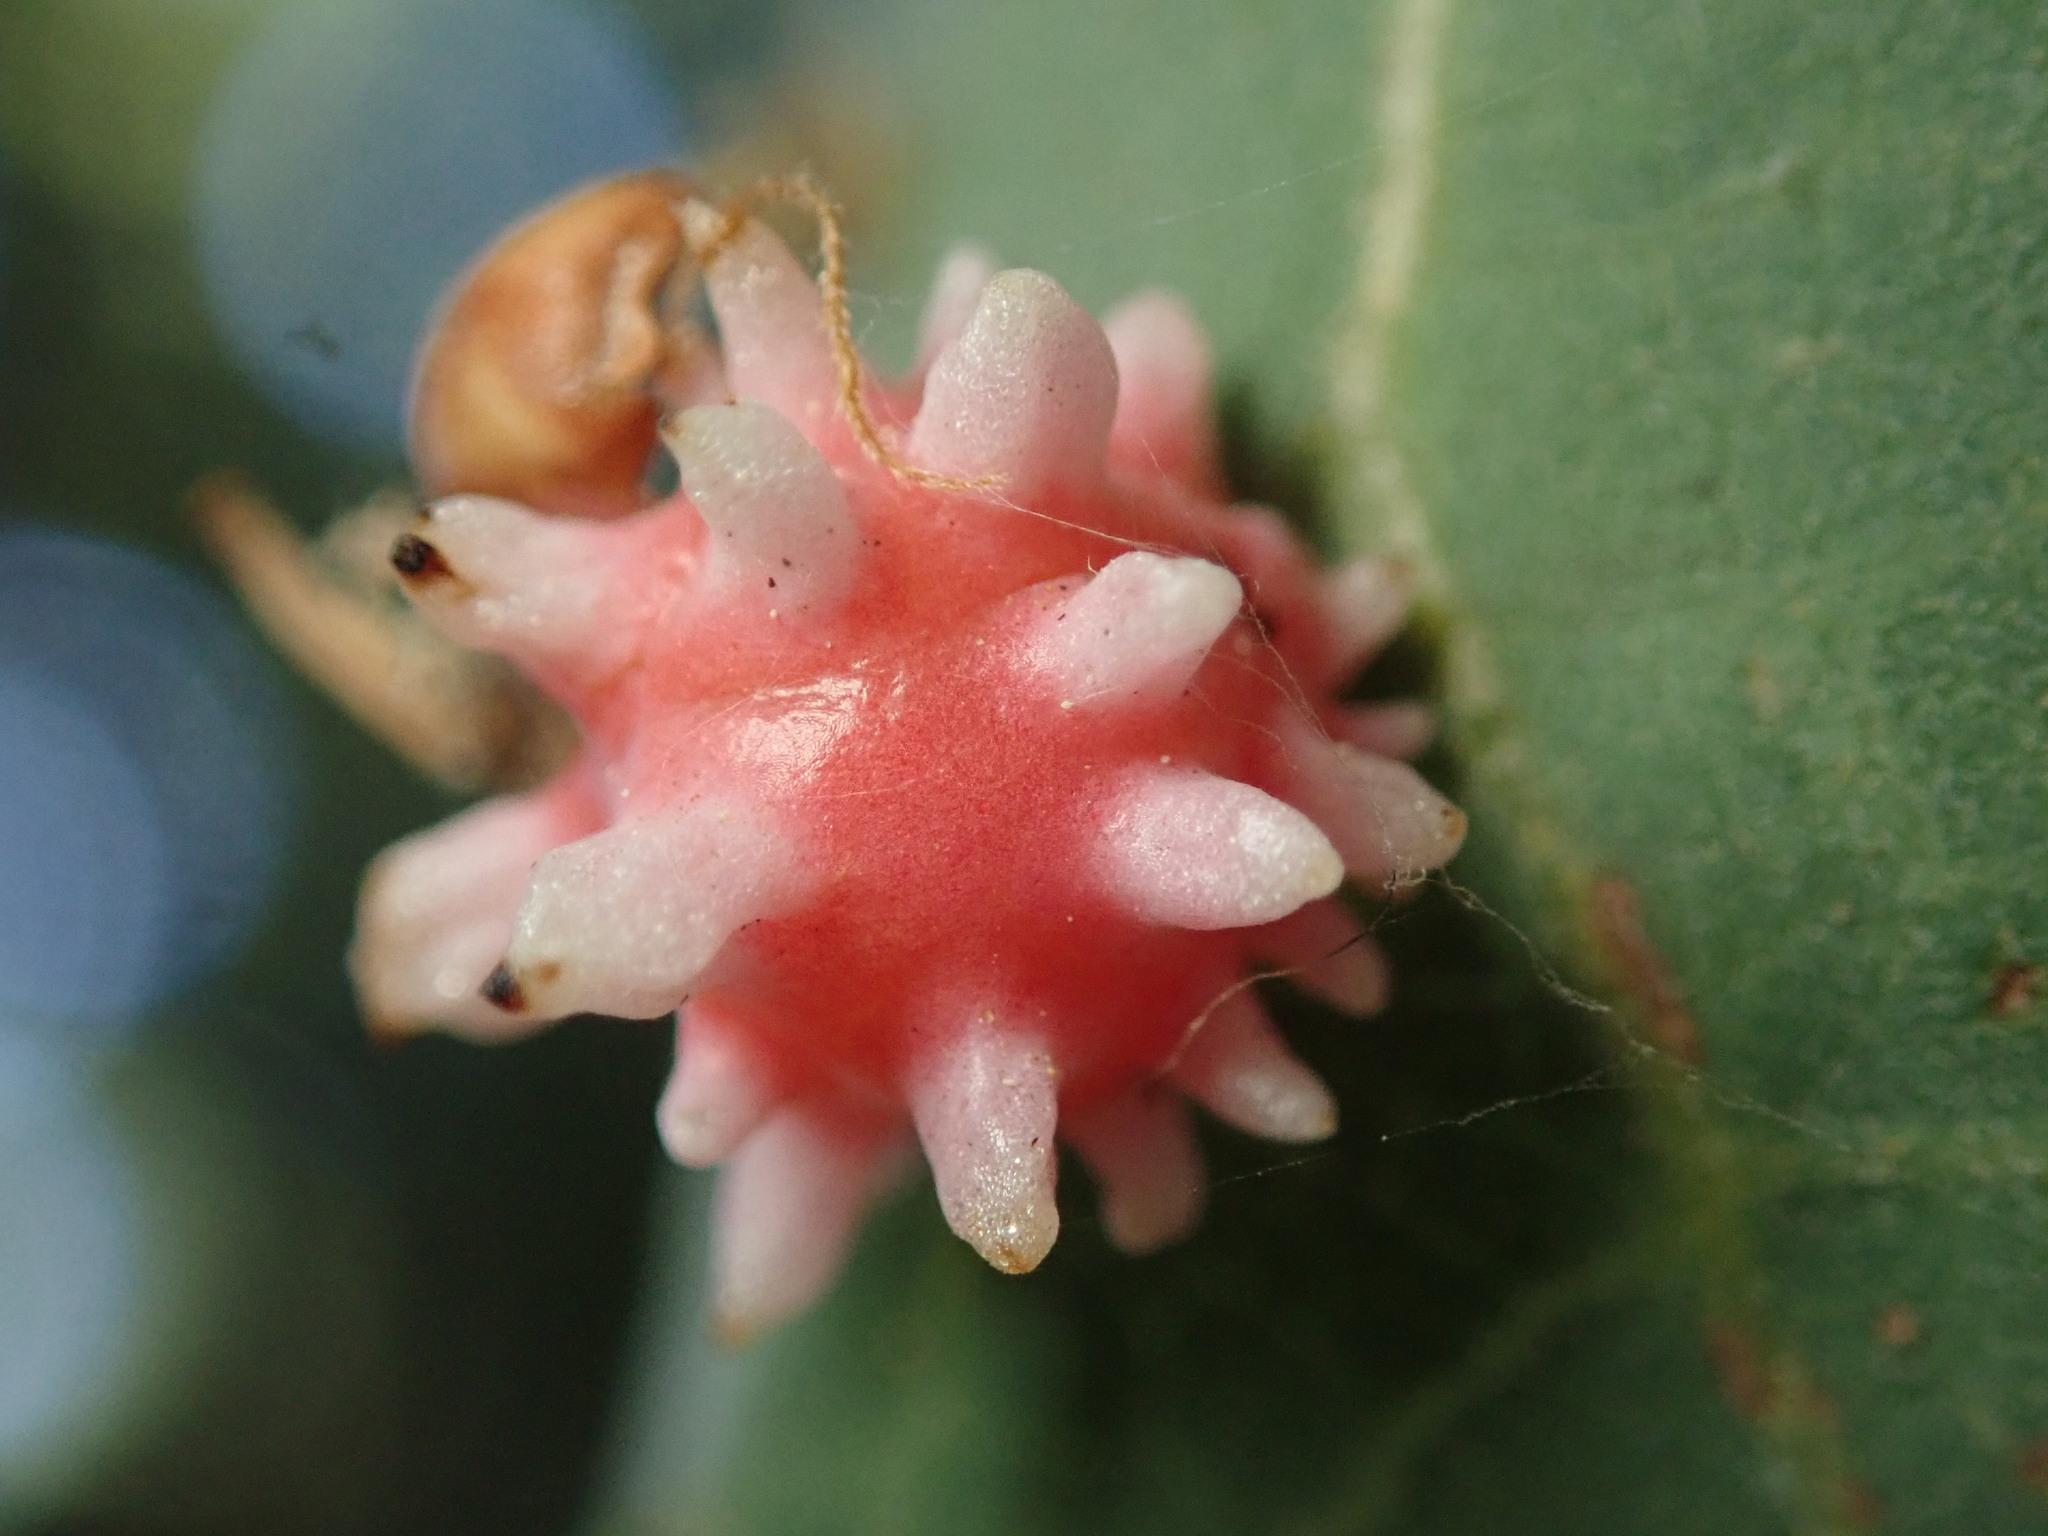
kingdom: Animalia
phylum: Arthropoda
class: Insecta
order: Hymenoptera
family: Cynipidae
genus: Cynips
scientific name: Cynips
